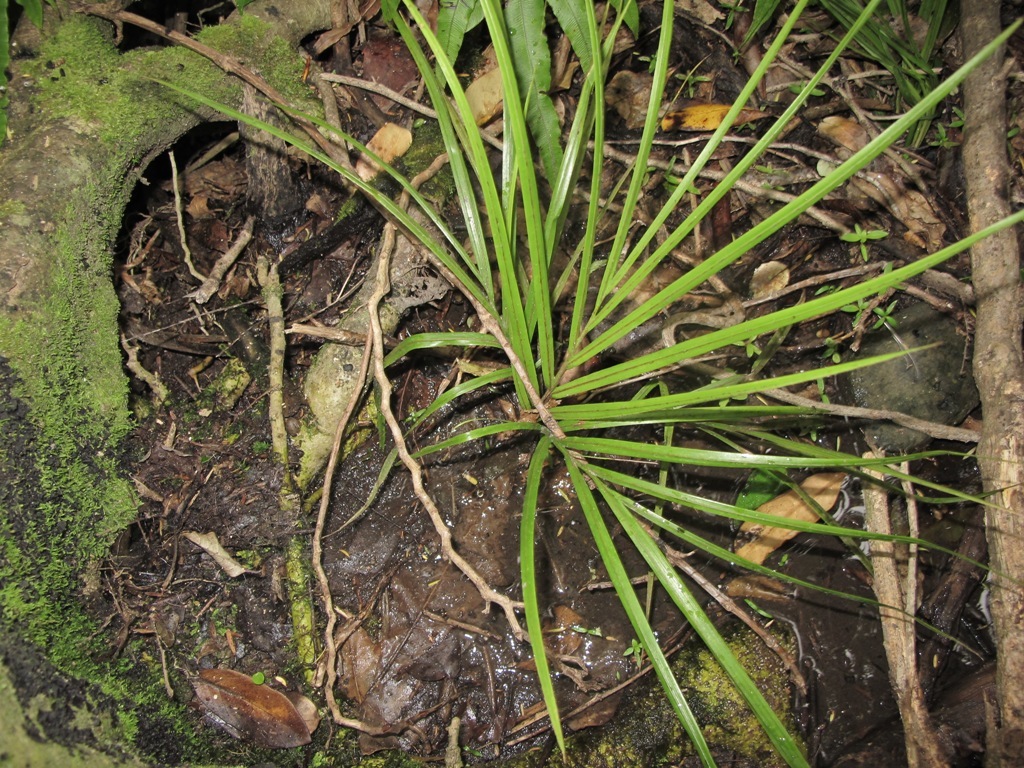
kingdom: Plantae
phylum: Tracheophyta
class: Liliopsida
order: Arecales
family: Arecaceae
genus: Rhopalostylis
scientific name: Rhopalostylis sapida
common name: Feather-duster palm
